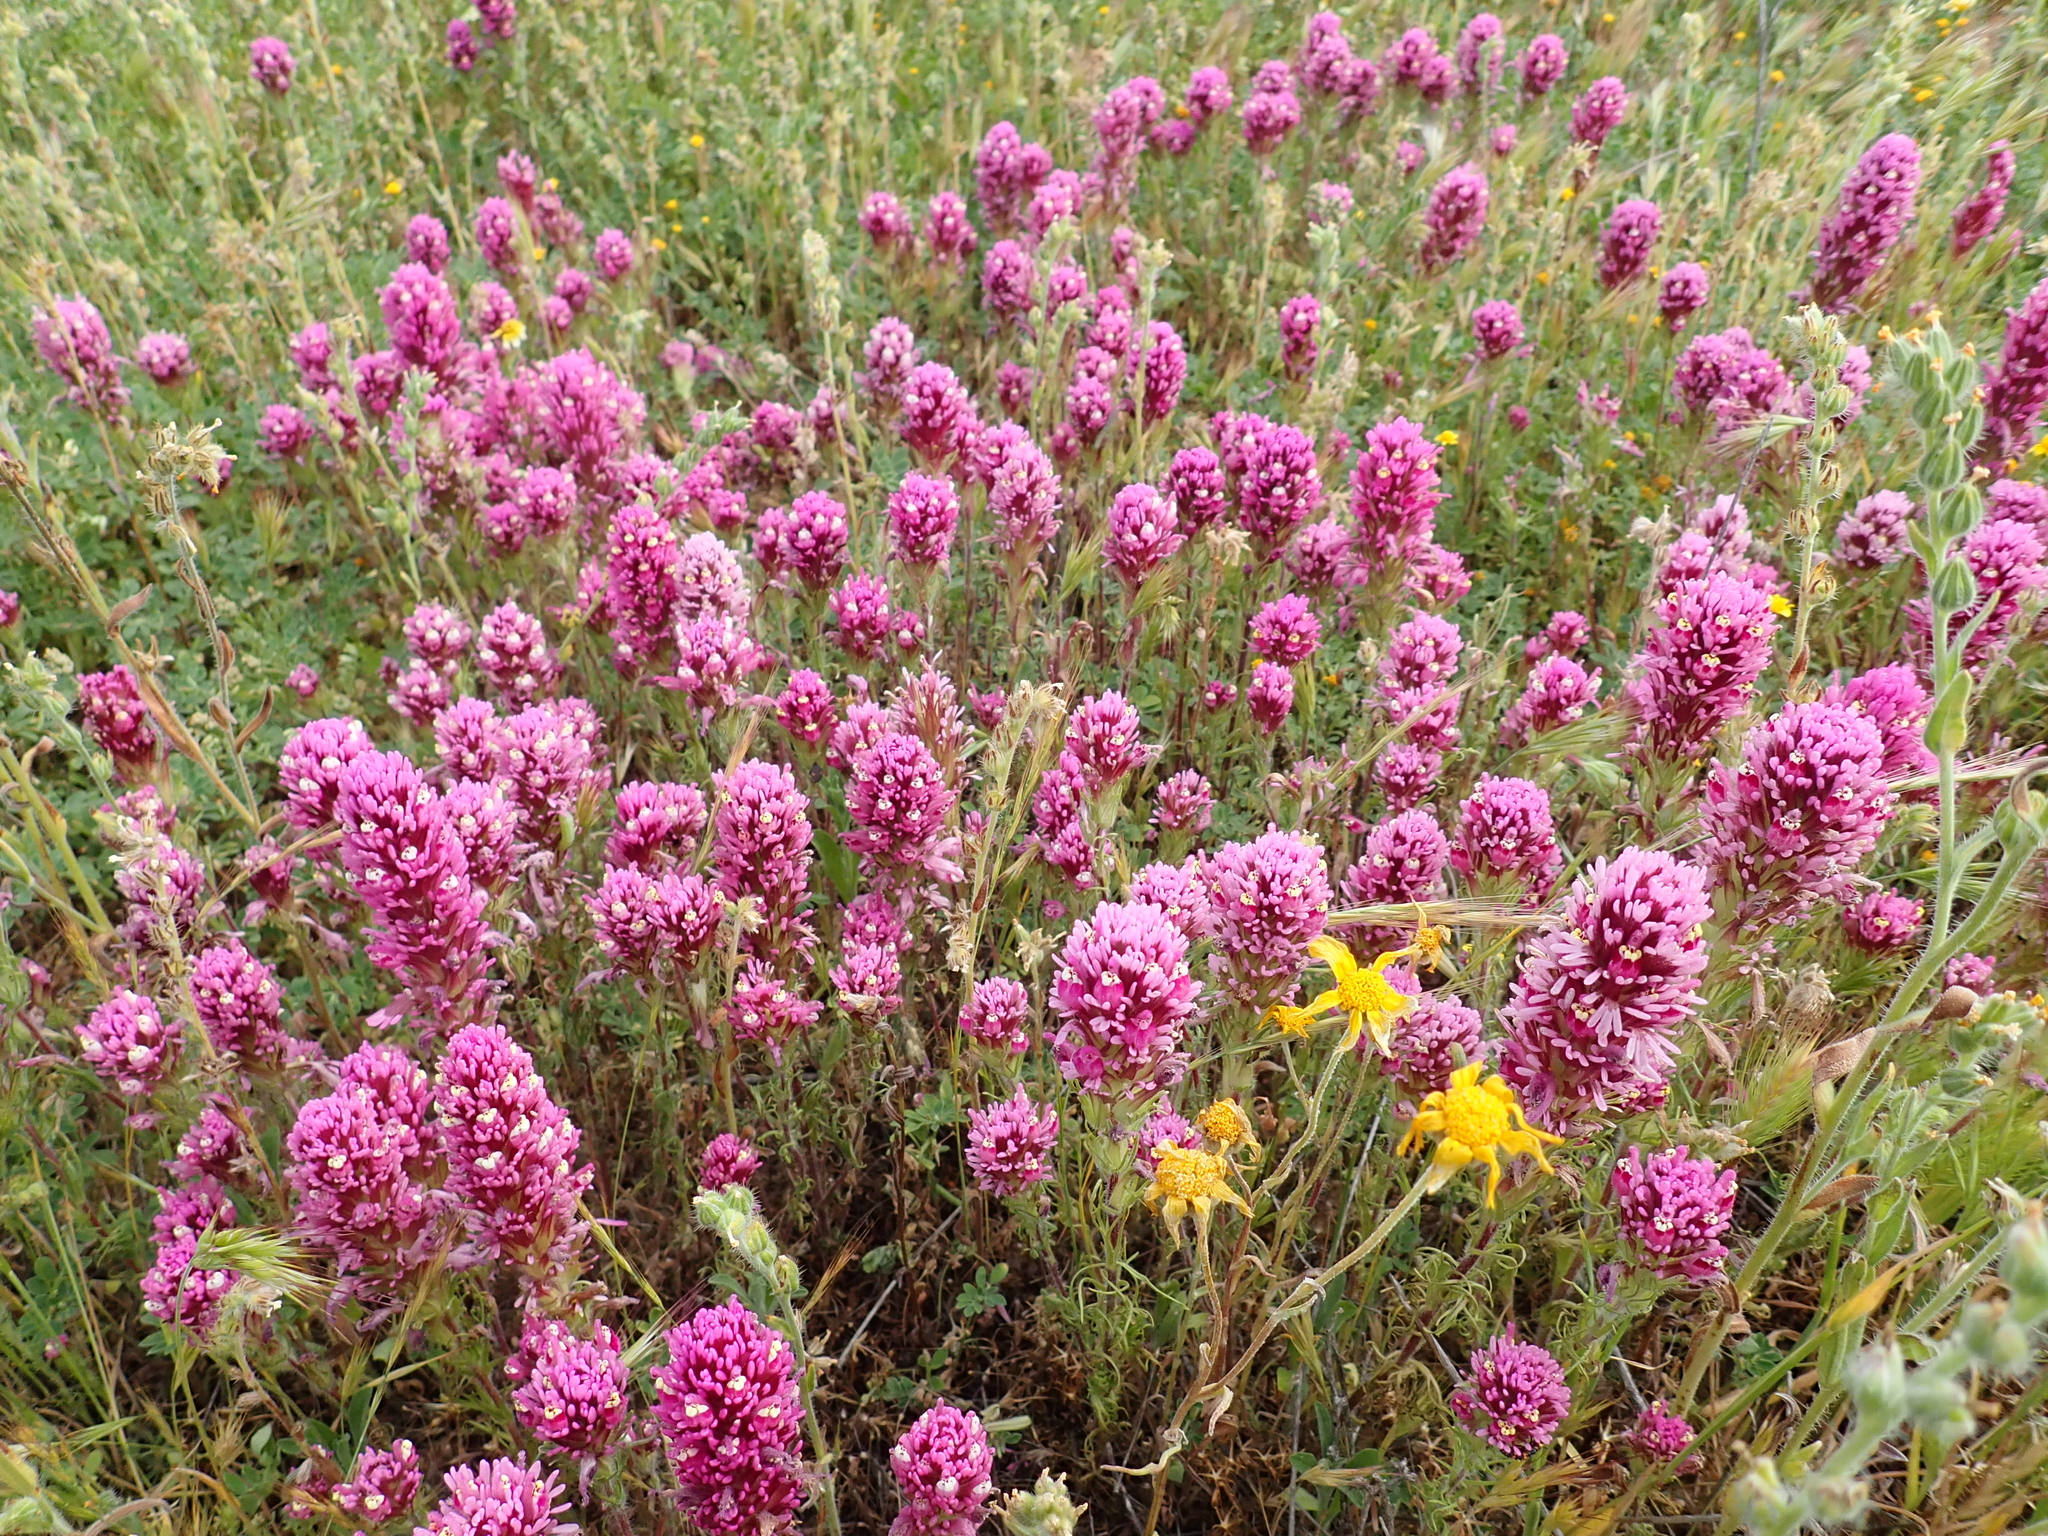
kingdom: Plantae
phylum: Tracheophyta
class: Magnoliopsida
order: Lamiales
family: Orobanchaceae
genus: Castilleja
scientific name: Castilleja exserta
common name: Purple owl-clover
